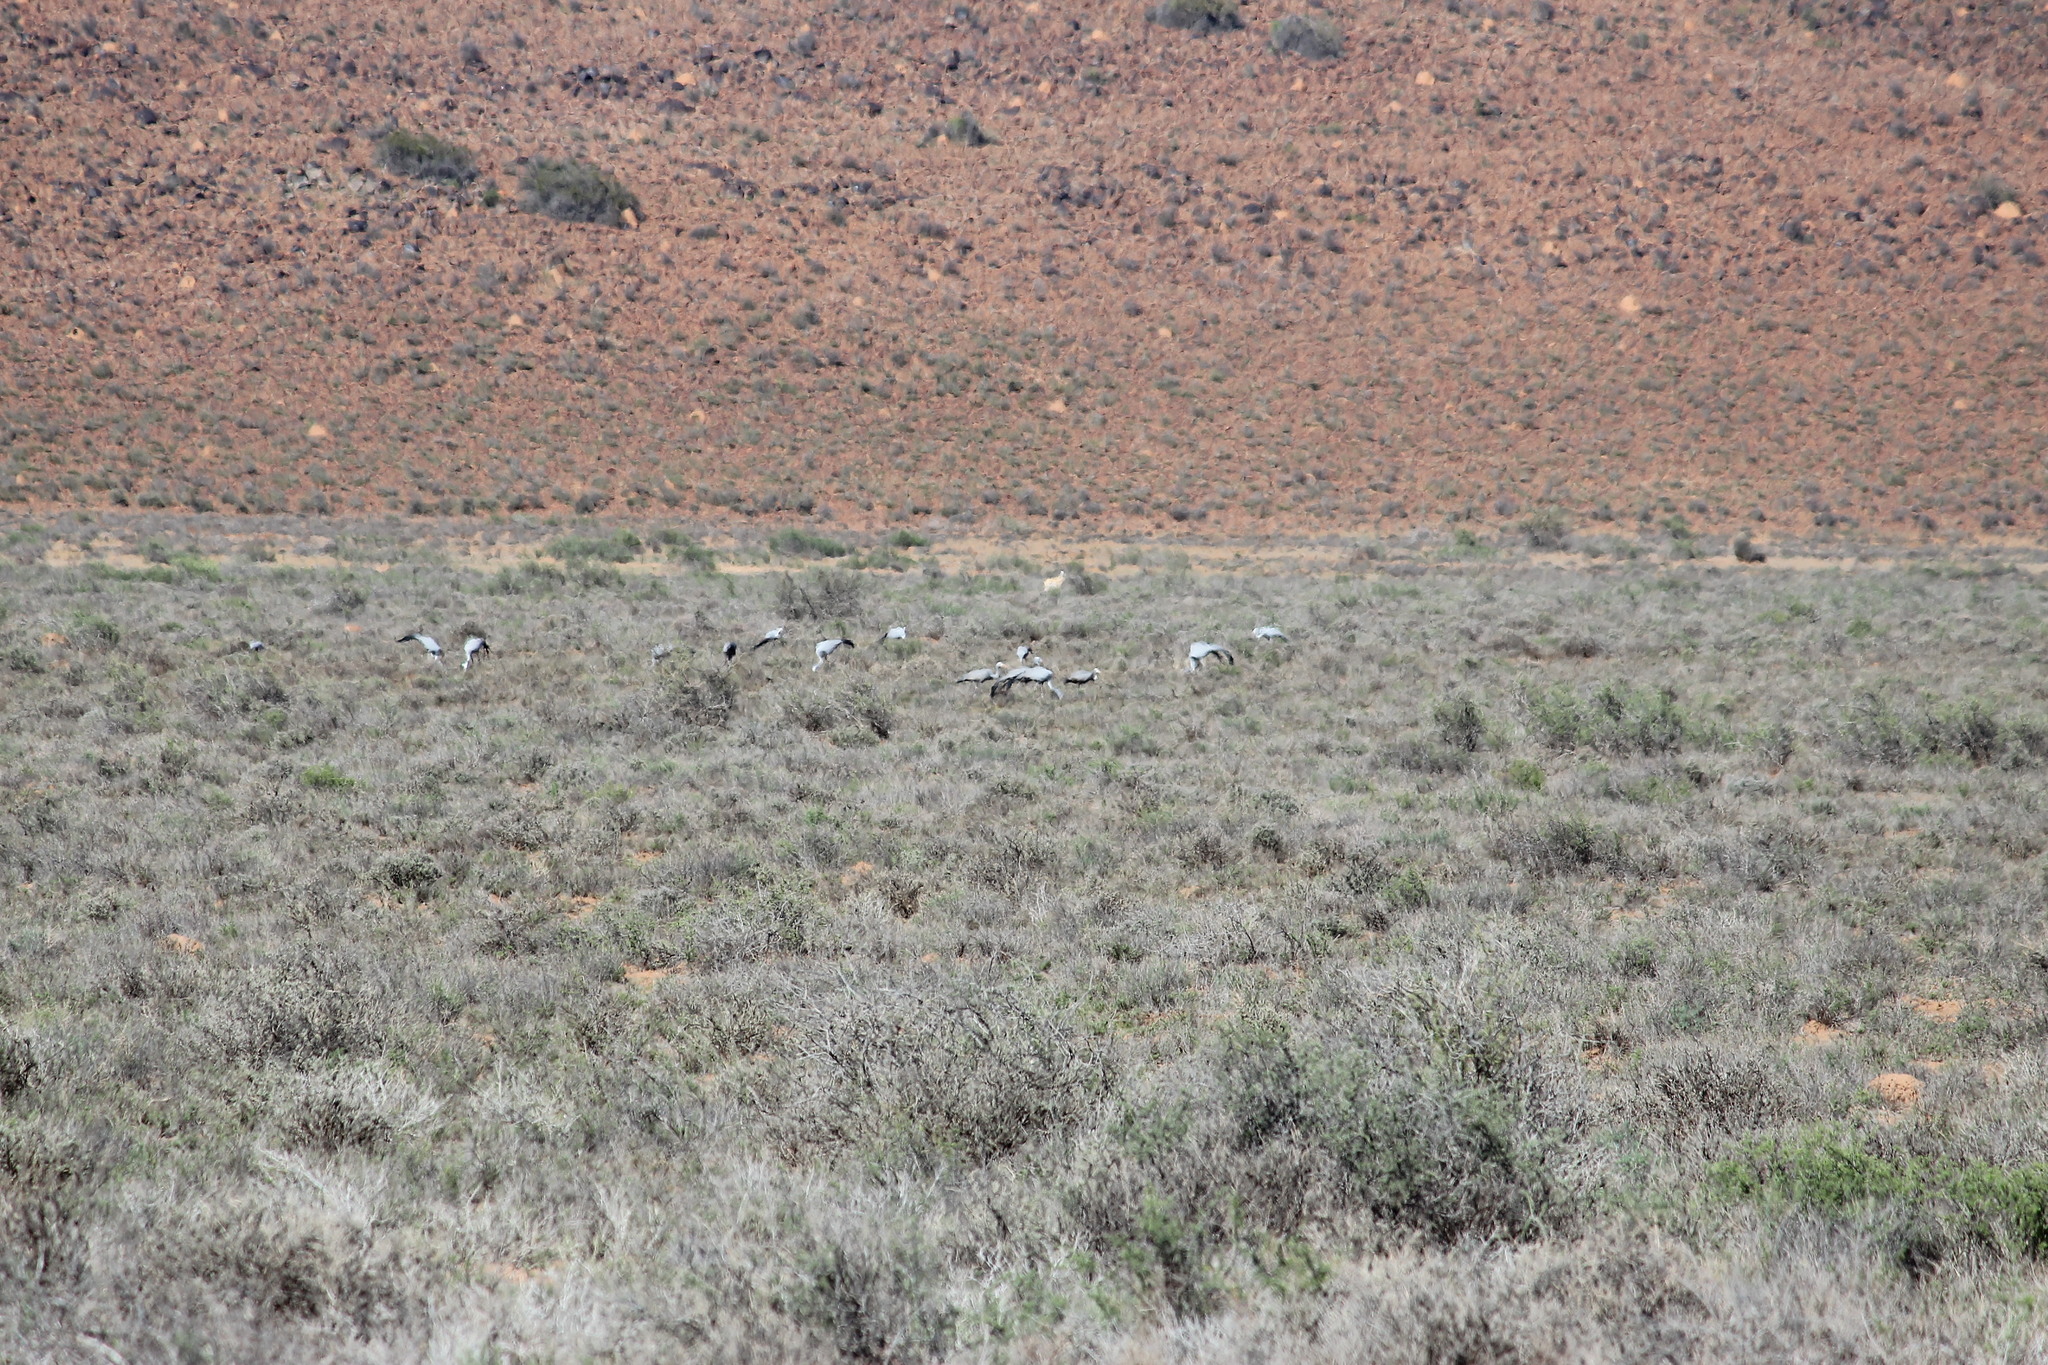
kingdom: Animalia
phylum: Chordata
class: Aves
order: Gruiformes
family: Gruidae
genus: Anthropoides
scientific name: Anthropoides paradiseus
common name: Blue crane
